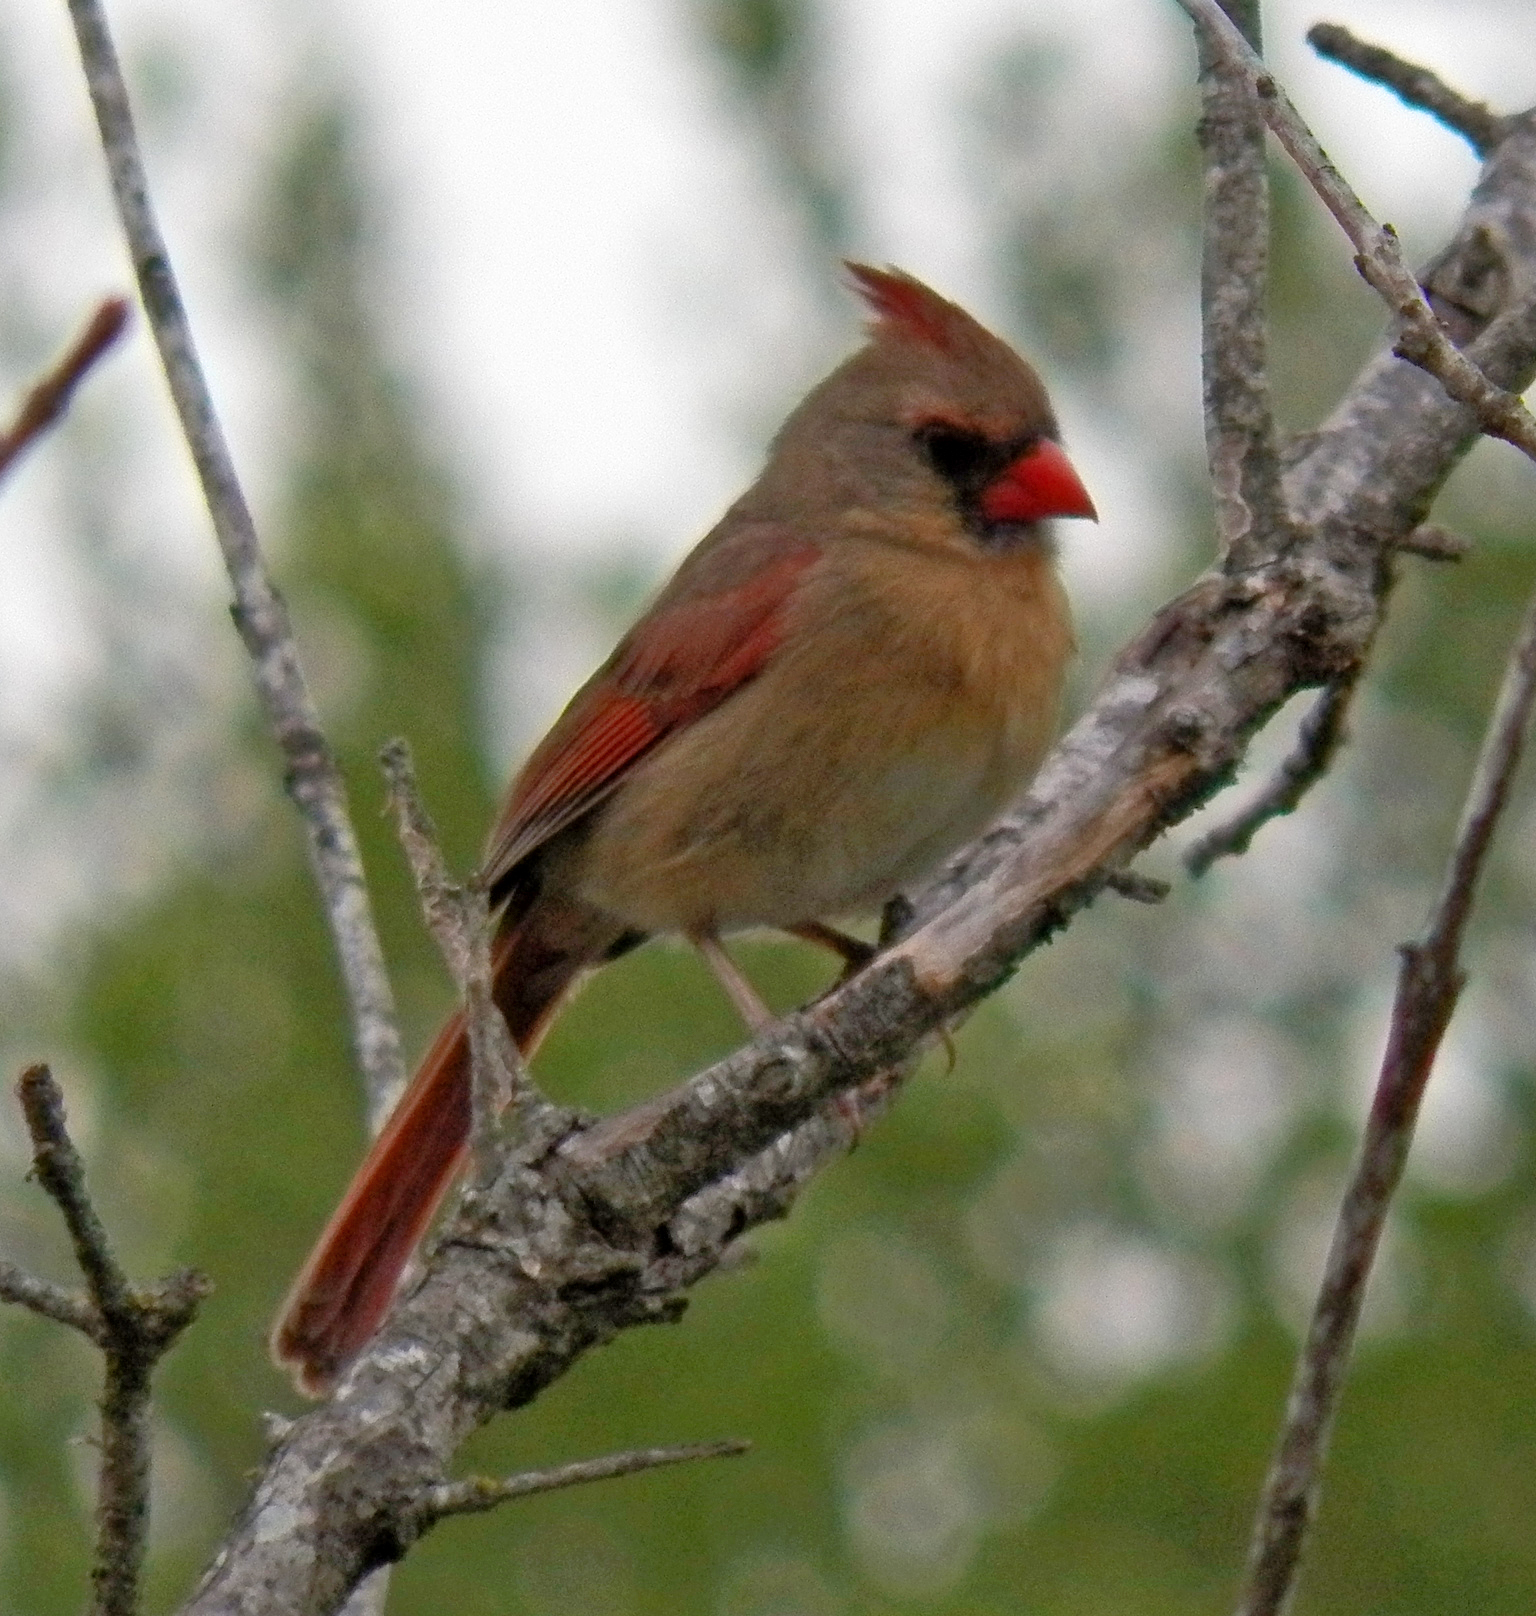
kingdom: Animalia
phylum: Chordata
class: Aves
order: Passeriformes
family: Cardinalidae
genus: Cardinalis
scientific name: Cardinalis cardinalis
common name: Northern cardinal
